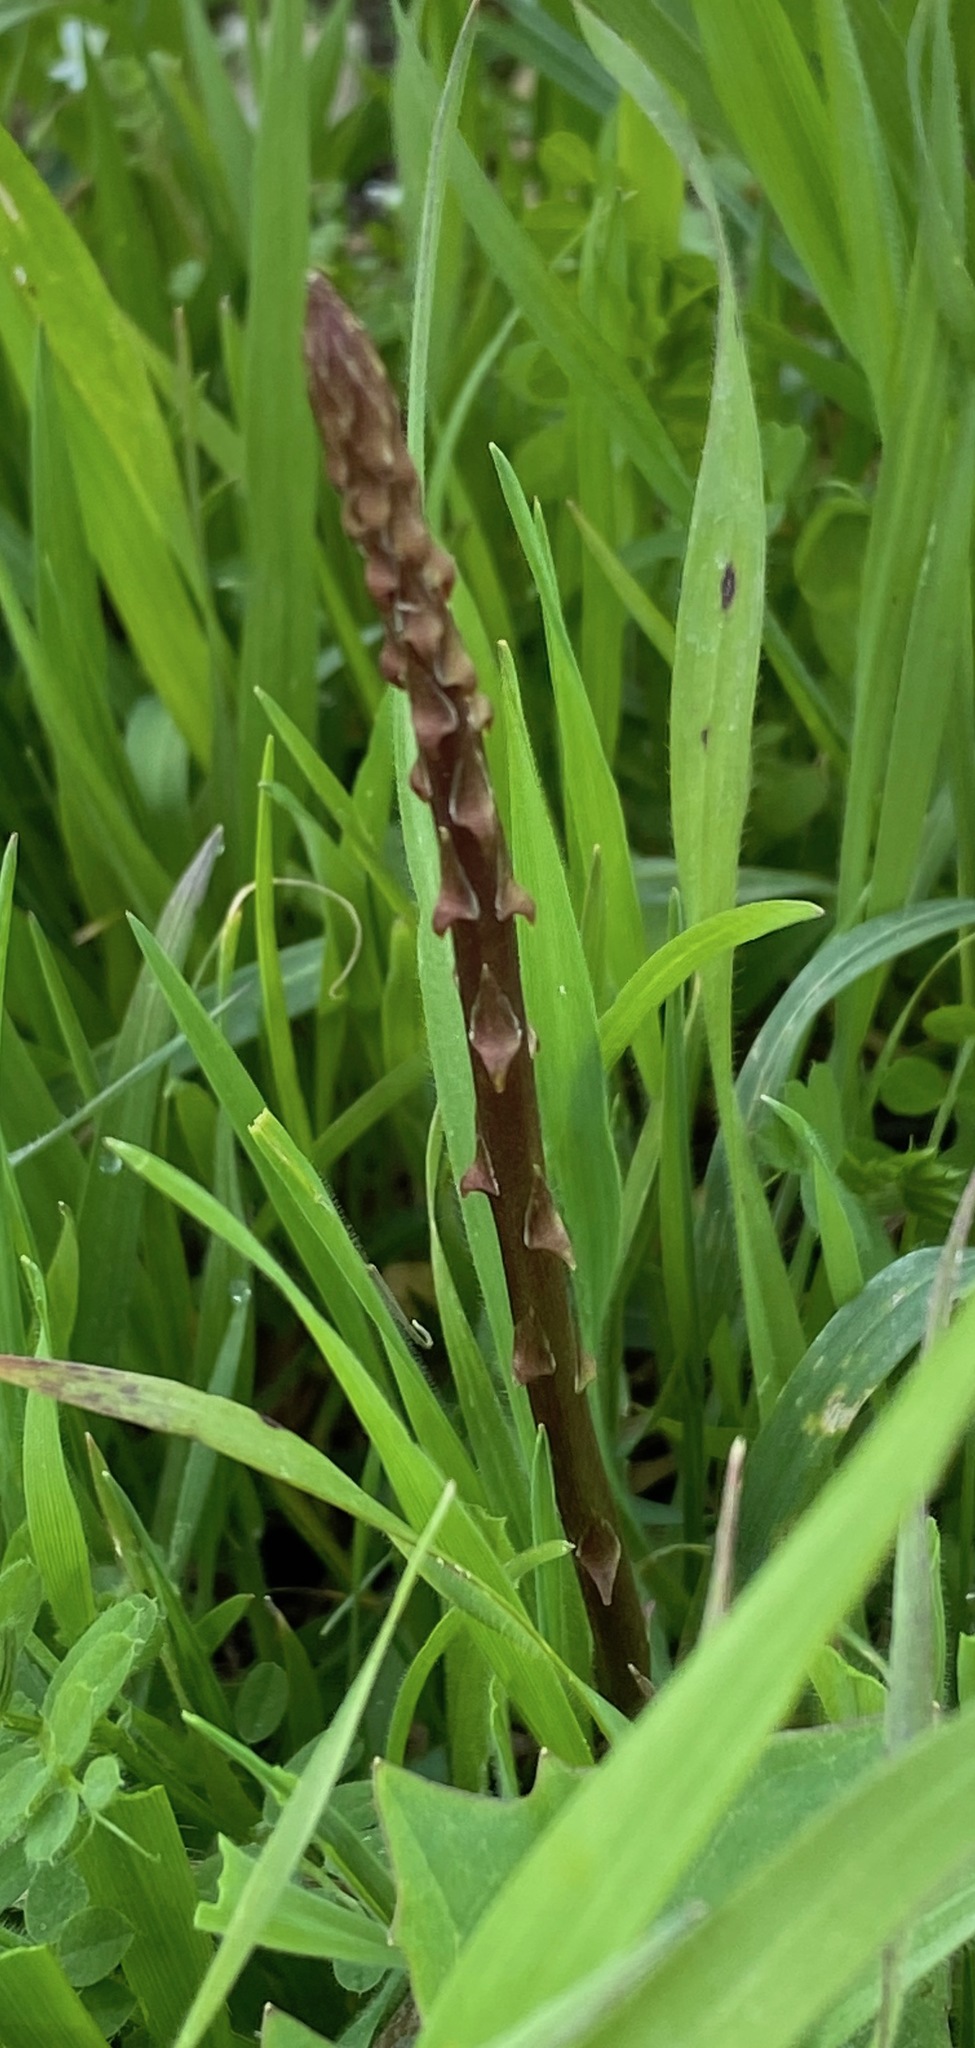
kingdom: Plantae
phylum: Tracheophyta
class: Liliopsida
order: Asparagales
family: Asparagaceae
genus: Asparagus
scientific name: Asparagus officinalis
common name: Garden asparagus
